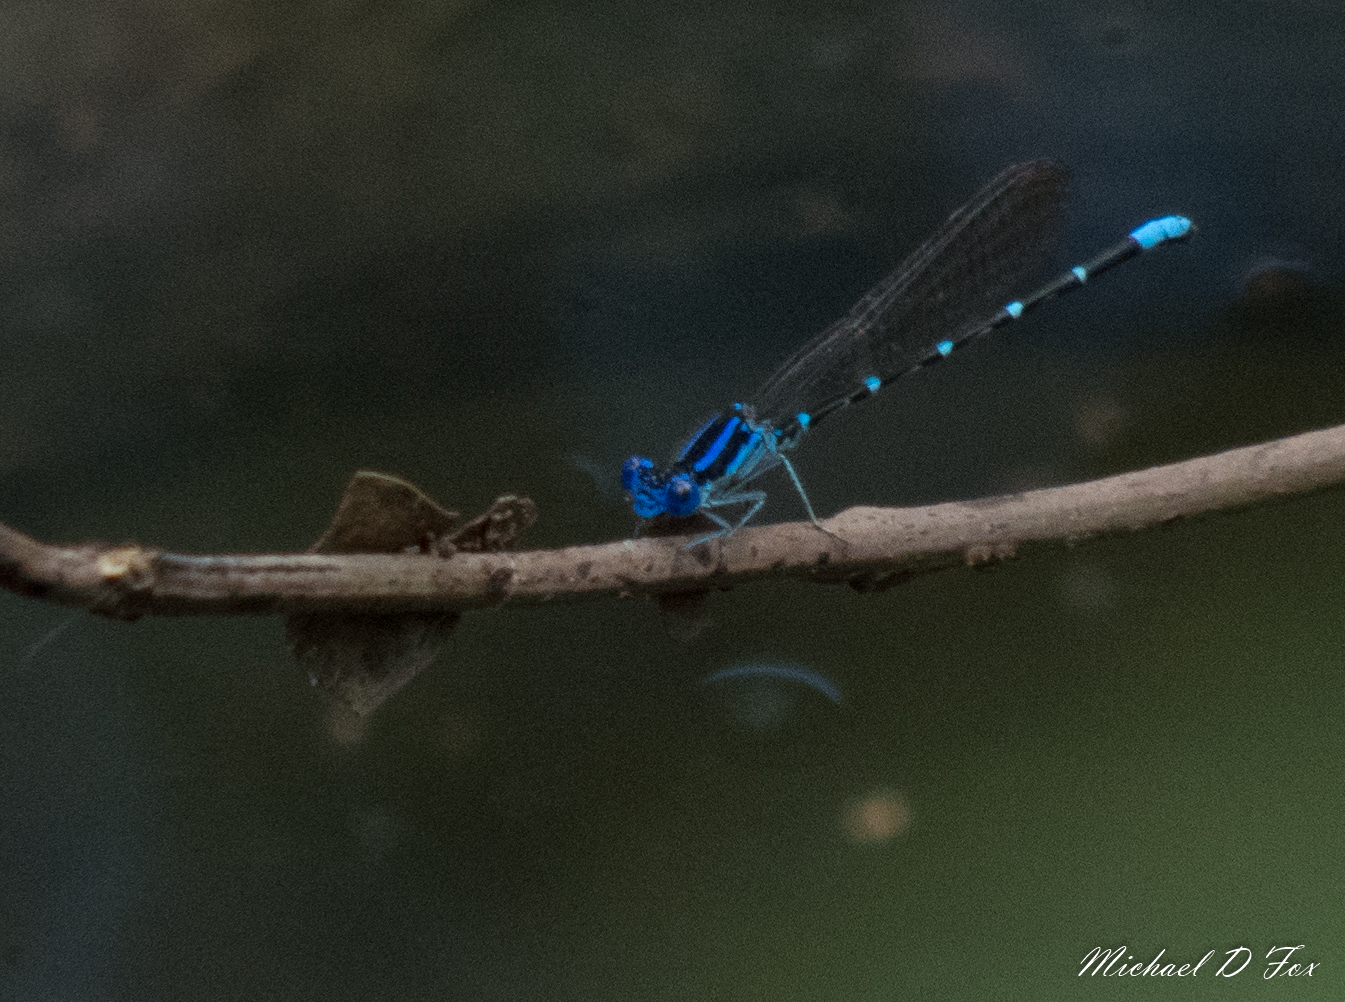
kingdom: Animalia
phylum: Arthropoda
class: Insecta
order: Odonata
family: Coenagrionidae
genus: Argia
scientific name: Argia sedula
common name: Blue-ringed dancer
